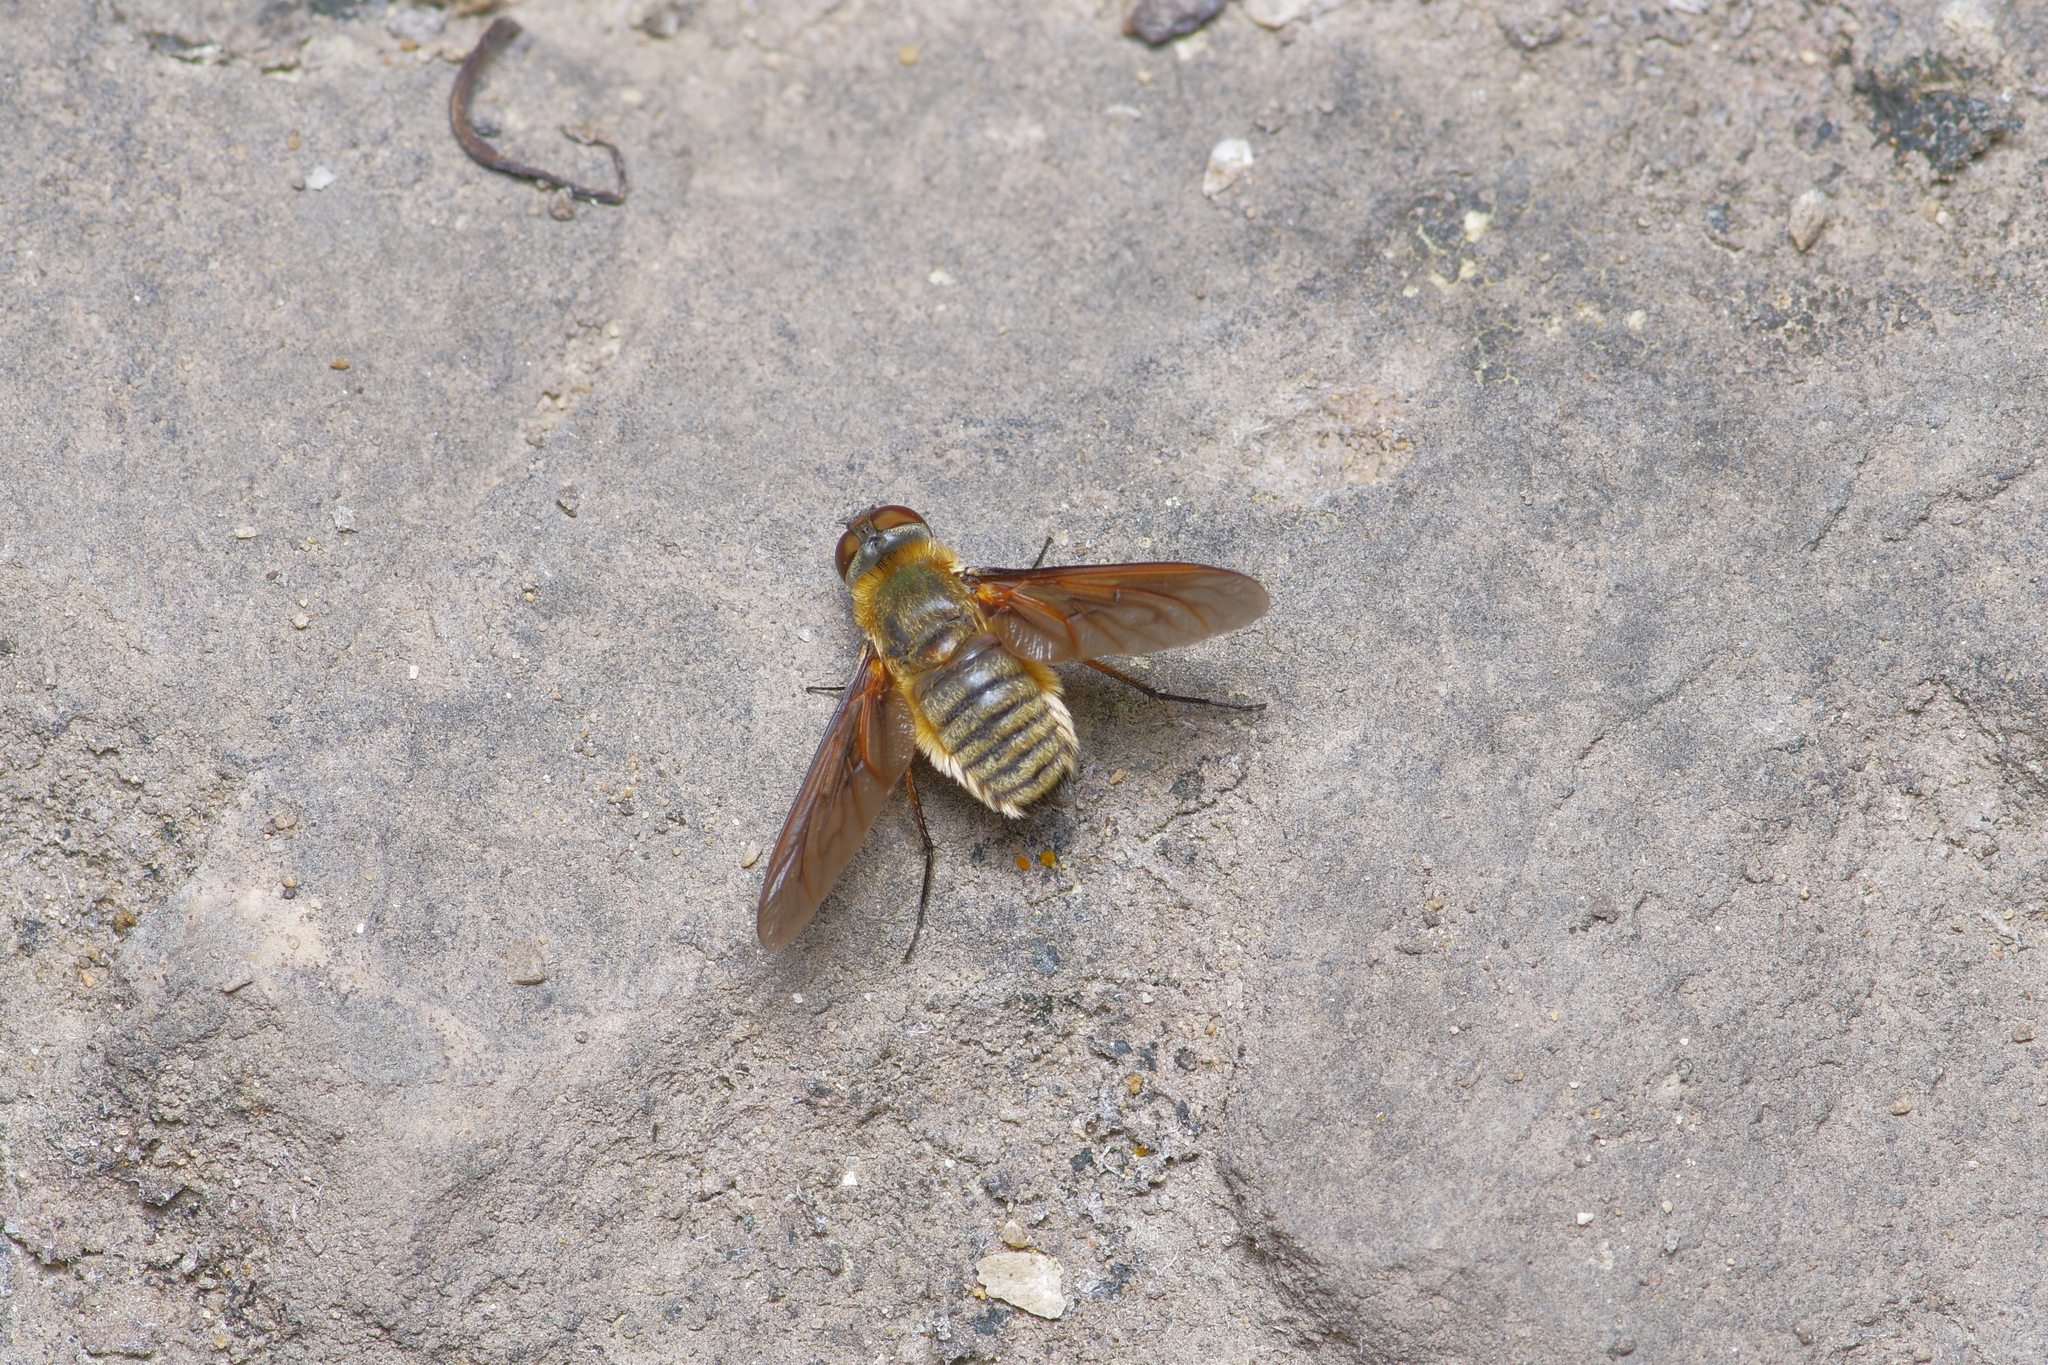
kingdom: Animalia
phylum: Arthropoda
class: Insecta
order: Diptera
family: Bombyliidae
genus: Poecilanthrax
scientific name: Poecilanthrax lucifer
